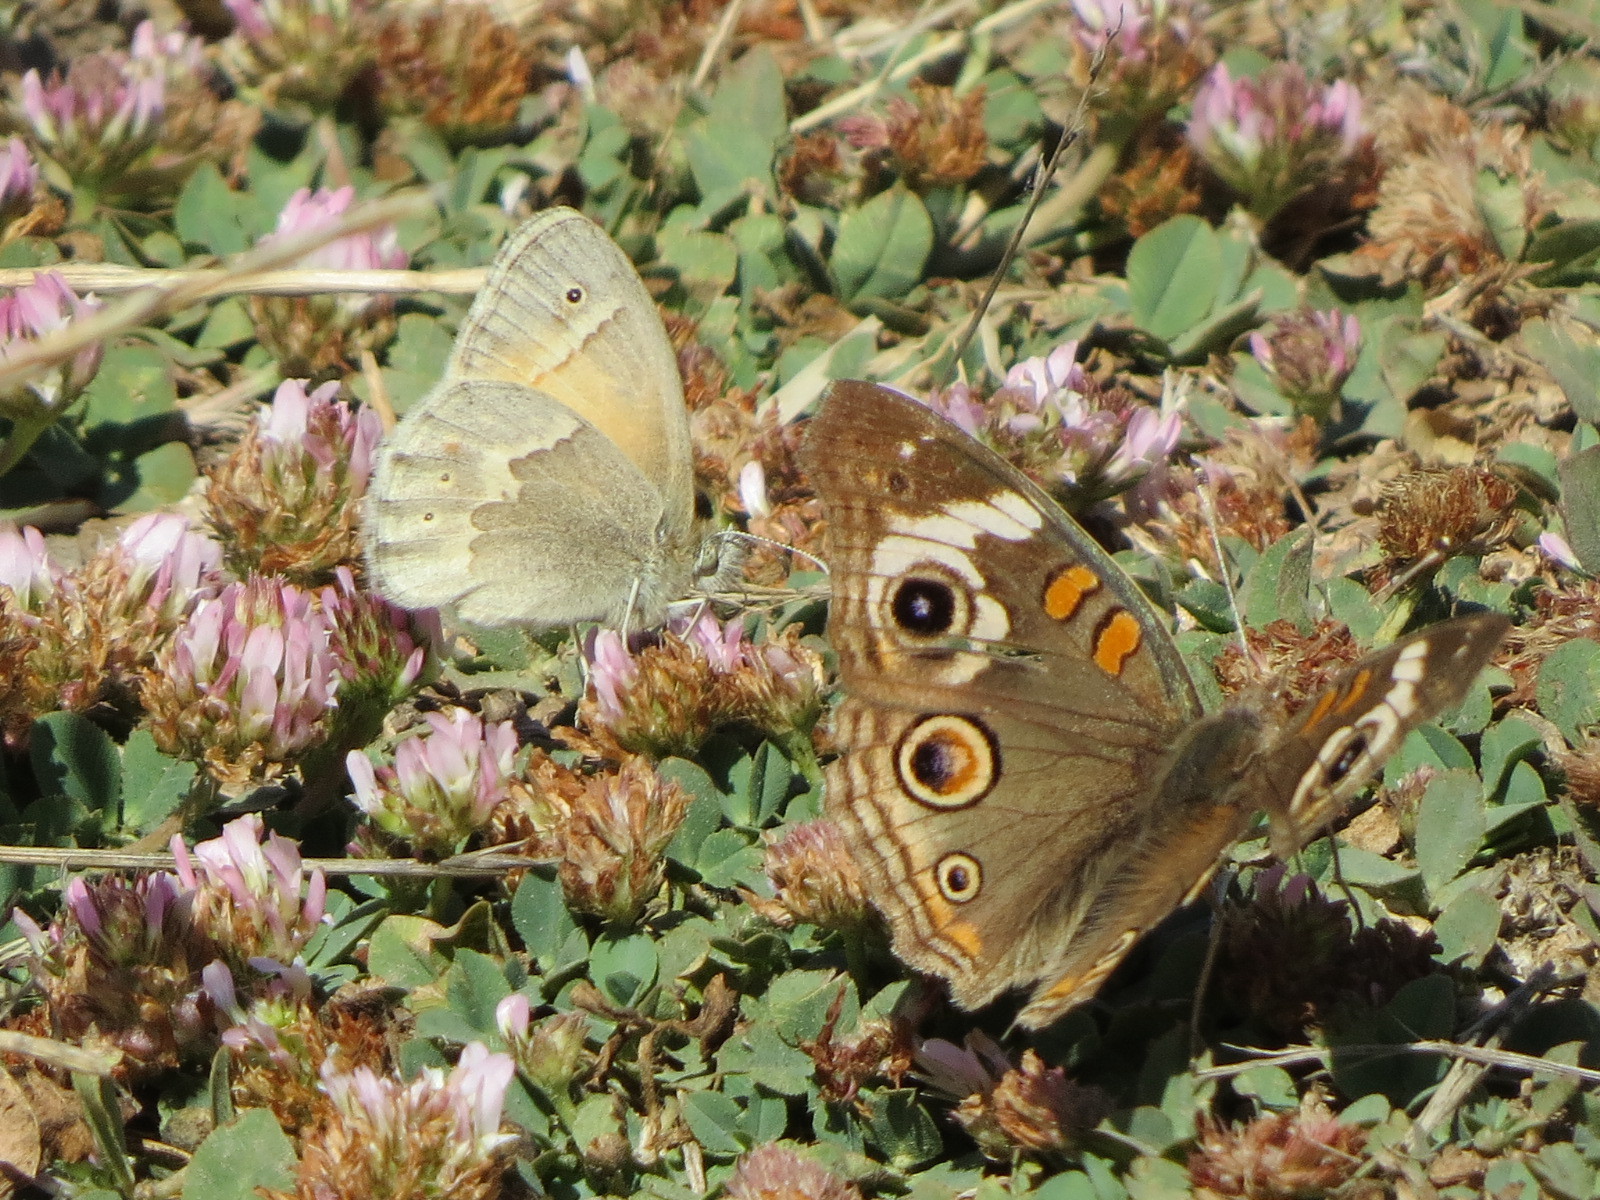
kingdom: Animalia
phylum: Arthropoda
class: Insecta
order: Lepidoptera
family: Nymphalidae
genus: Coenonympha
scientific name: Coenonympha california
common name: Common ringlet
